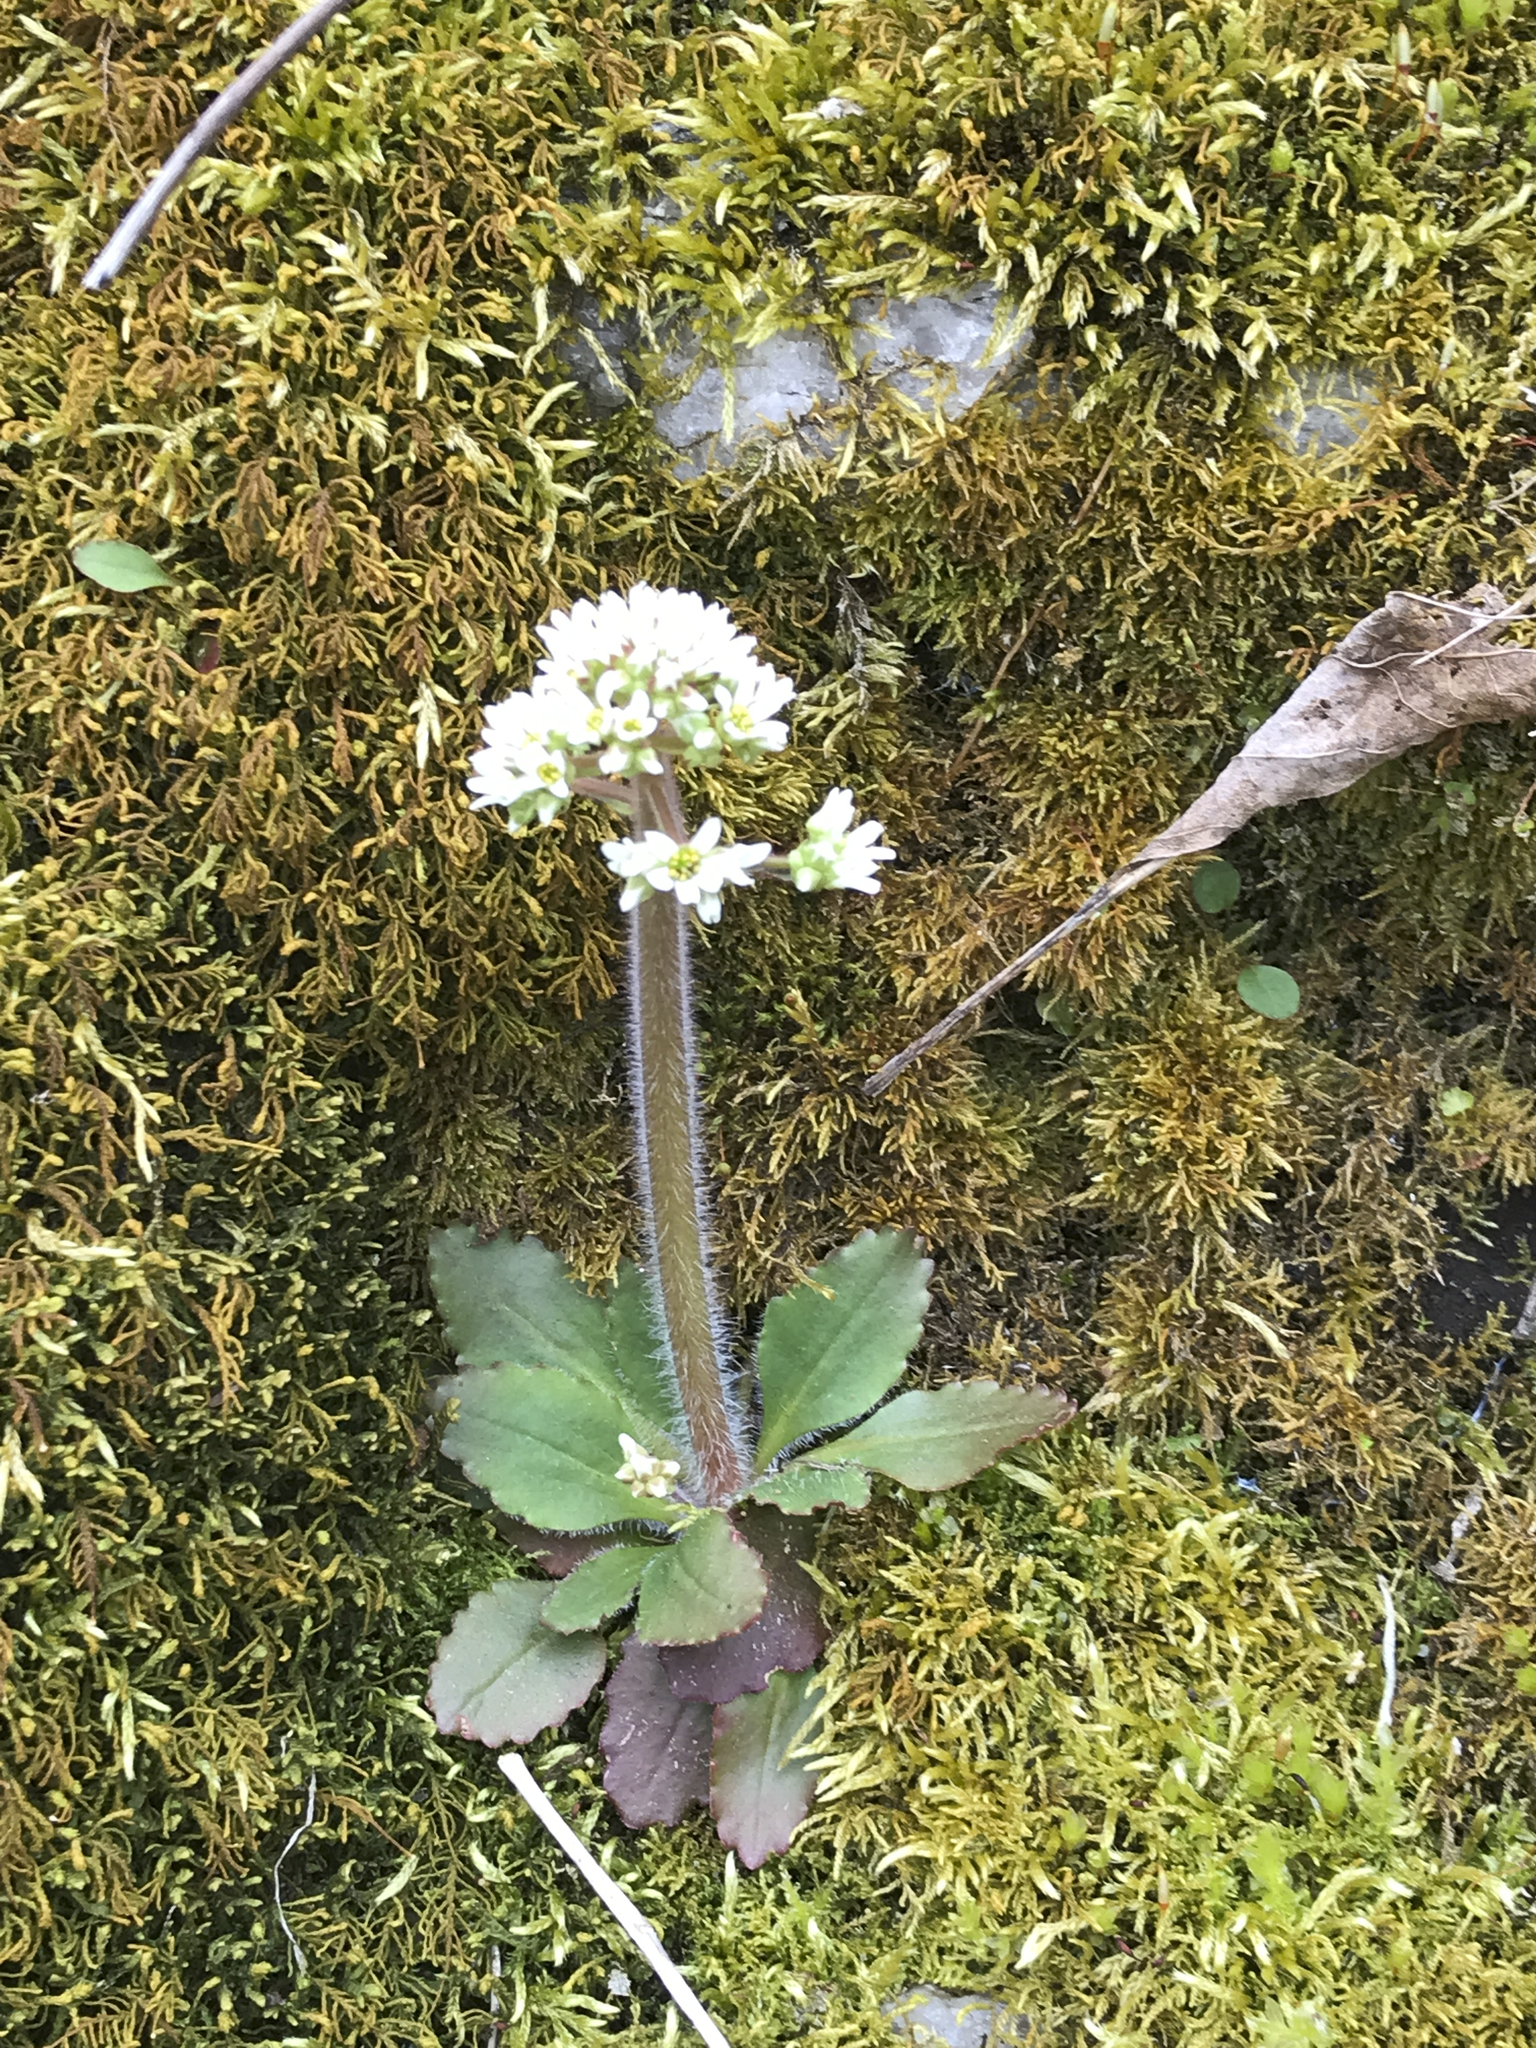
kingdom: Plantae
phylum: Tracheophyta
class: Magnoliopsida
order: Saxifragales
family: Saxifragaceae
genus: Micranthes
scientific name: Micranthes virginiensis
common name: Early saxifrage
